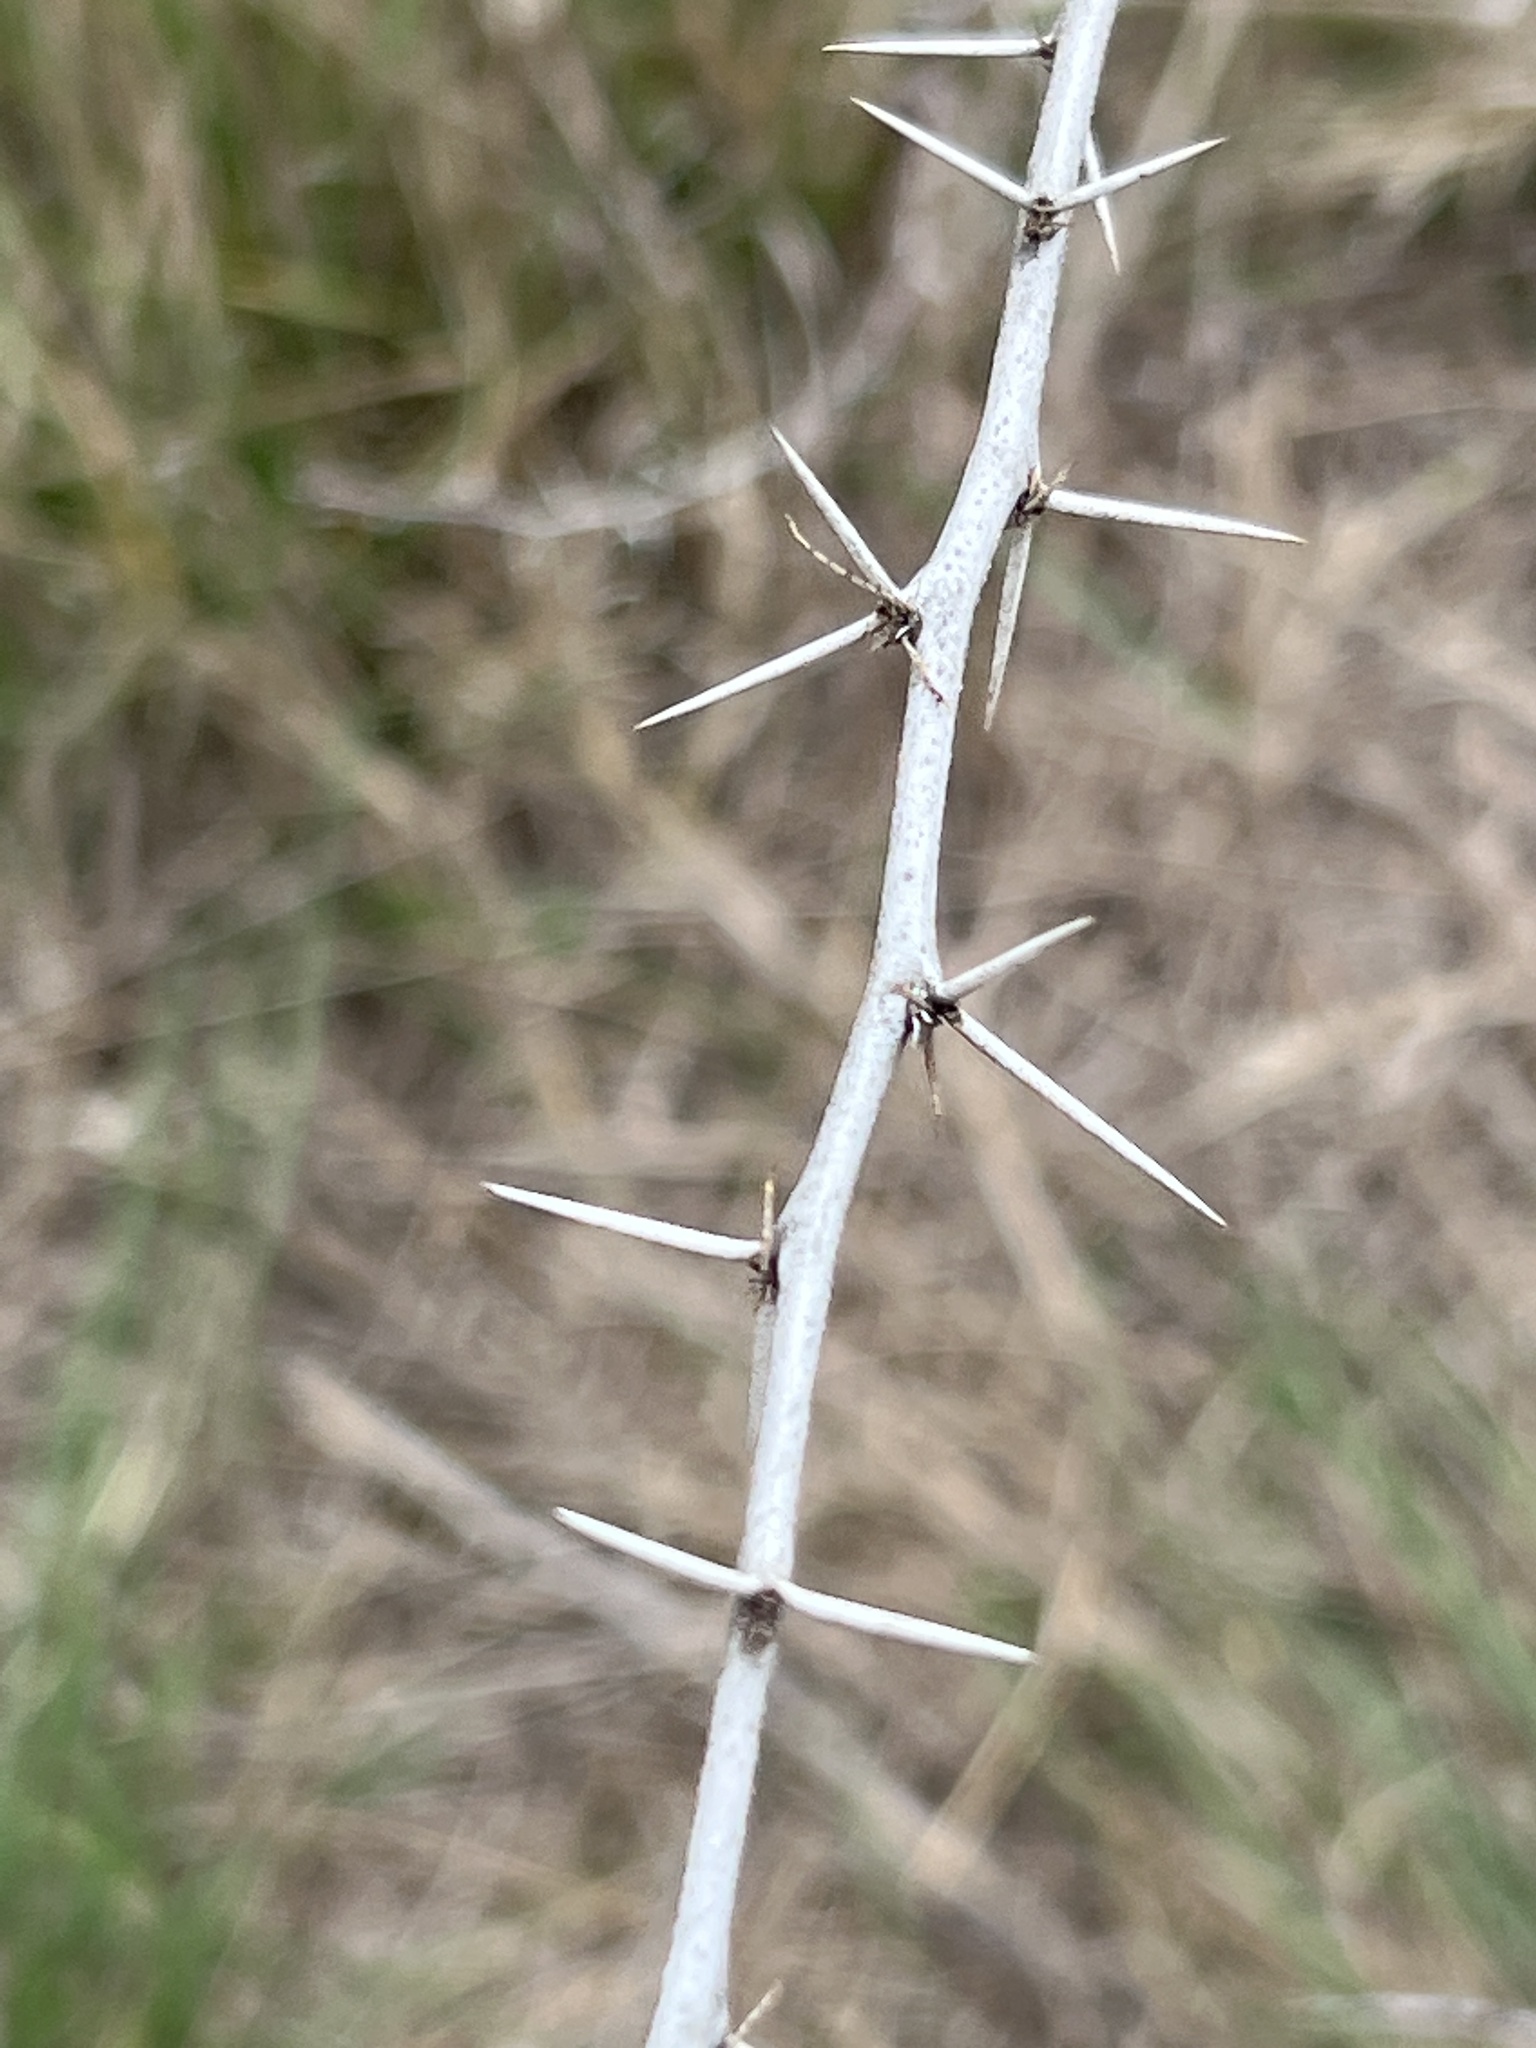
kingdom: Plantae
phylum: Tracheophyta
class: Magnoliopsida
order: Fabales
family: Fabaceae
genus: Vachellia
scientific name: Vachellia farnesiana
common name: Sweet acacia
